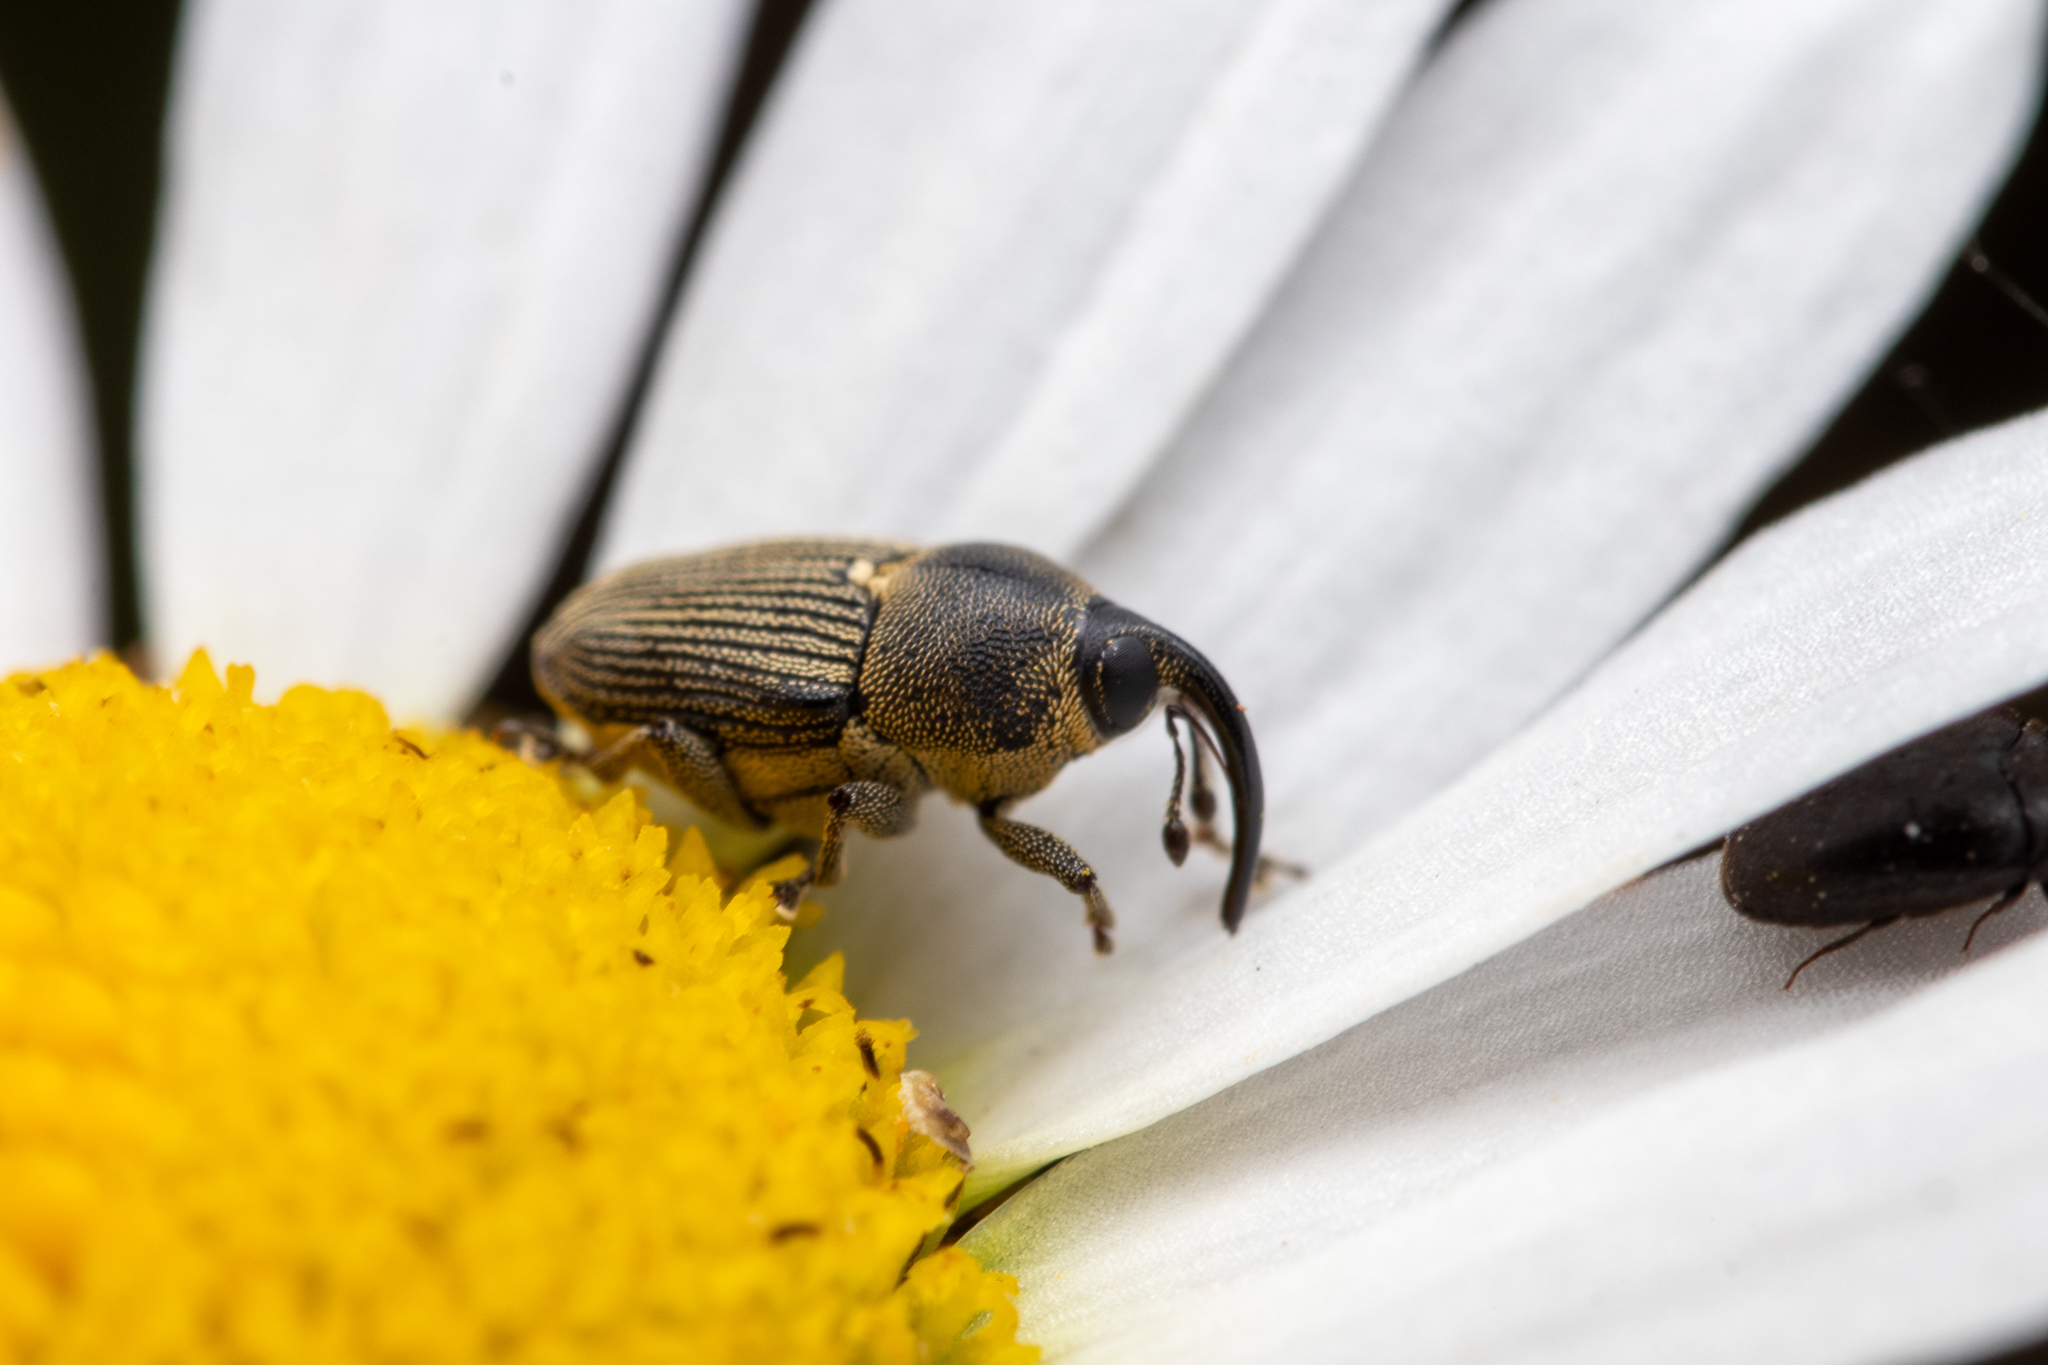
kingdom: Animalia
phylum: Arthropoda
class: Insecta
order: Coleoptera
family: Curculionidae
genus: Odontocorynus
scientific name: Odontocorynus salebrosus
